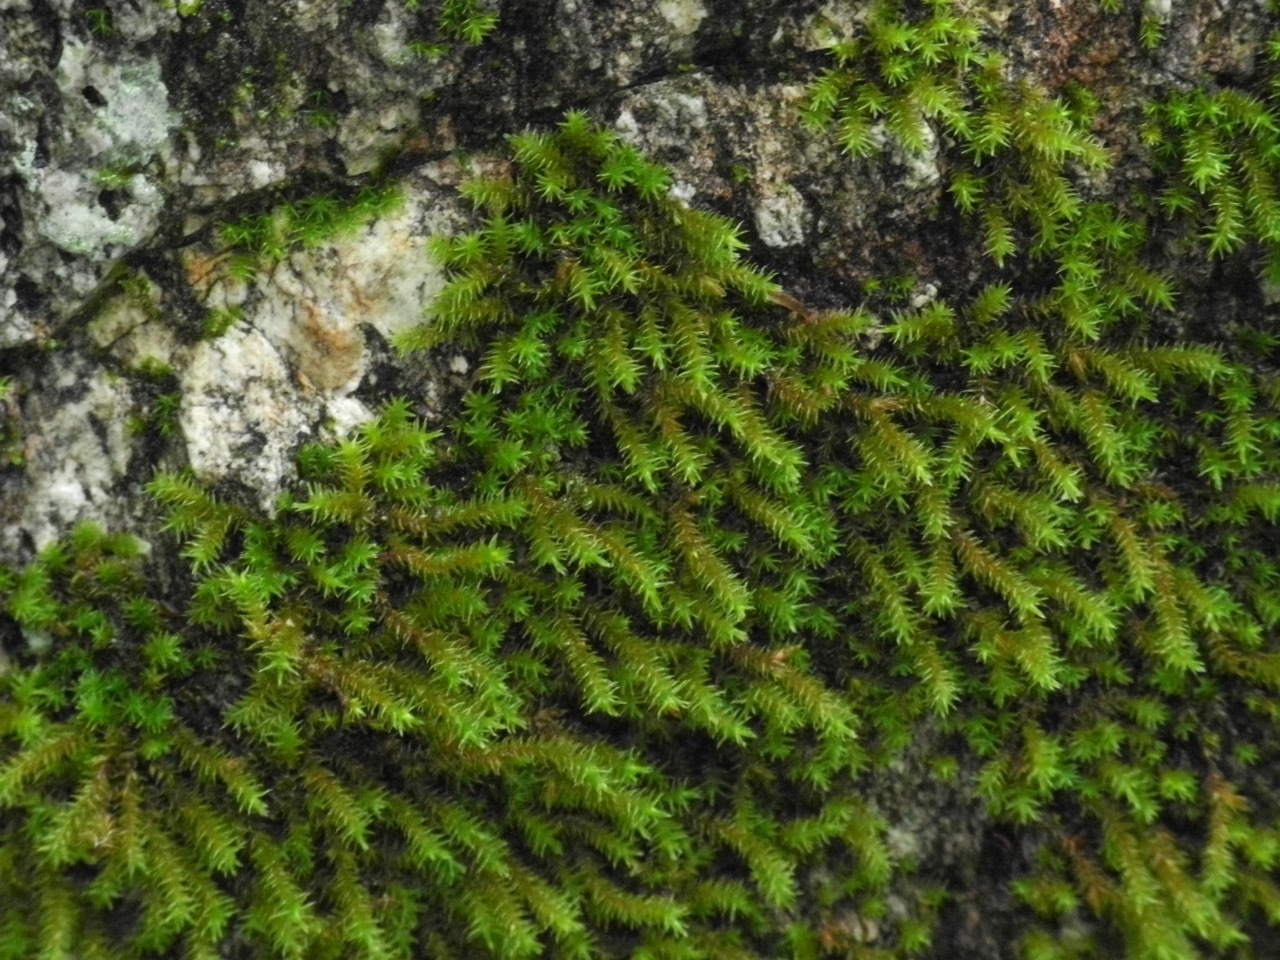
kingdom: Plantae
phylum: Bryophyta
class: Bryopsida
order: Hedwigiales
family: Hedwigiaceae
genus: Hedwigia
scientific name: Hedwigia ciliata
